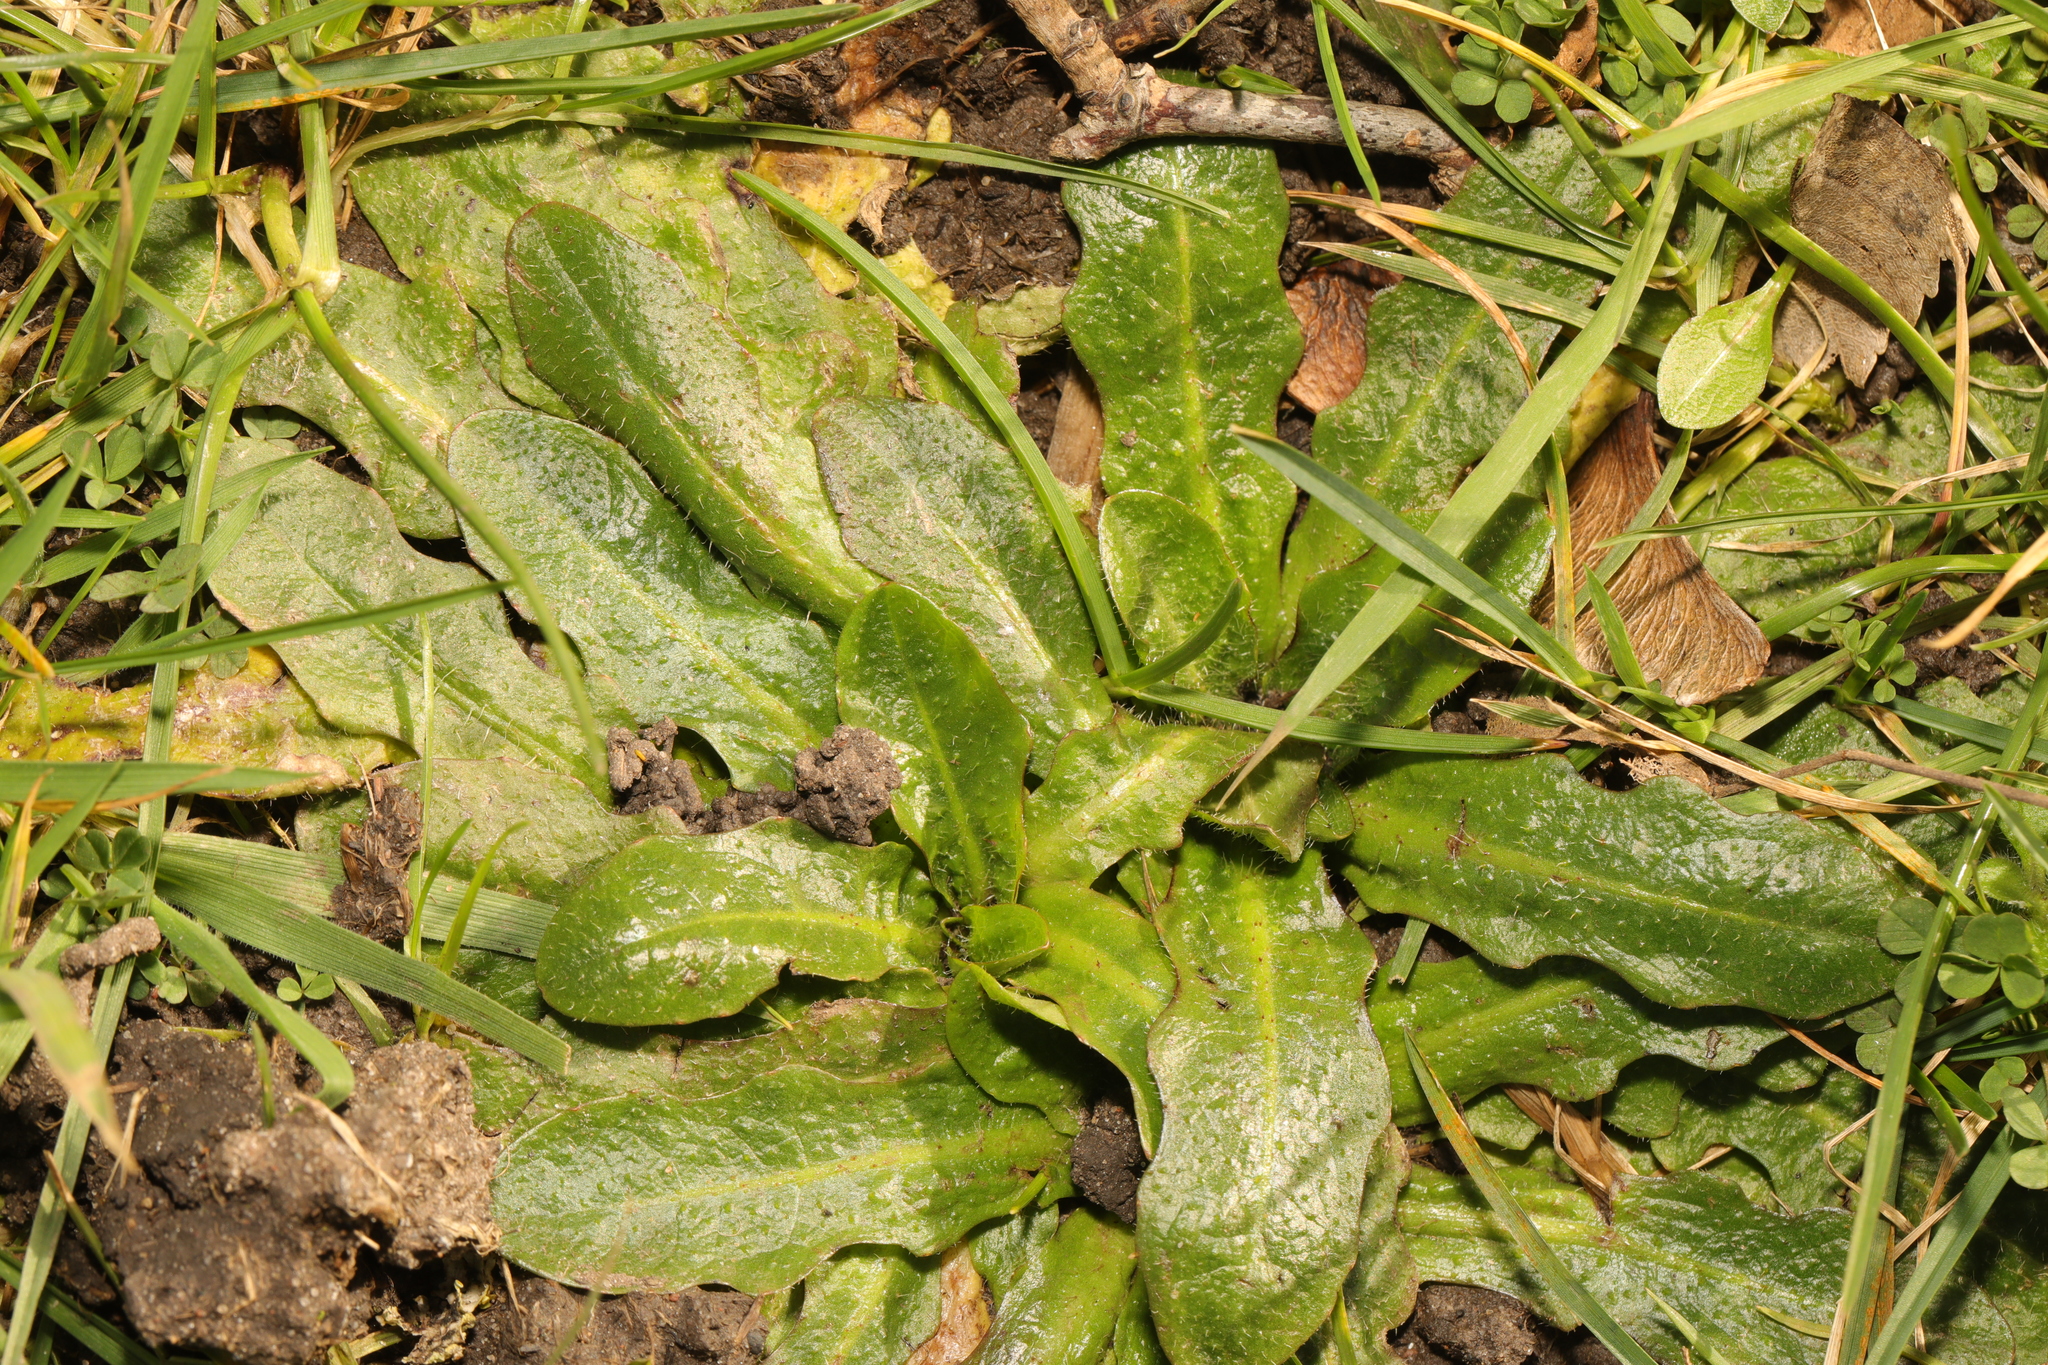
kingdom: Plantae
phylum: Tracheophyta
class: Magnoliopsida
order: Asterales
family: Asteraceae
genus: Hypochaeris
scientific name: Hypochaeris radicata
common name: Flatweed
